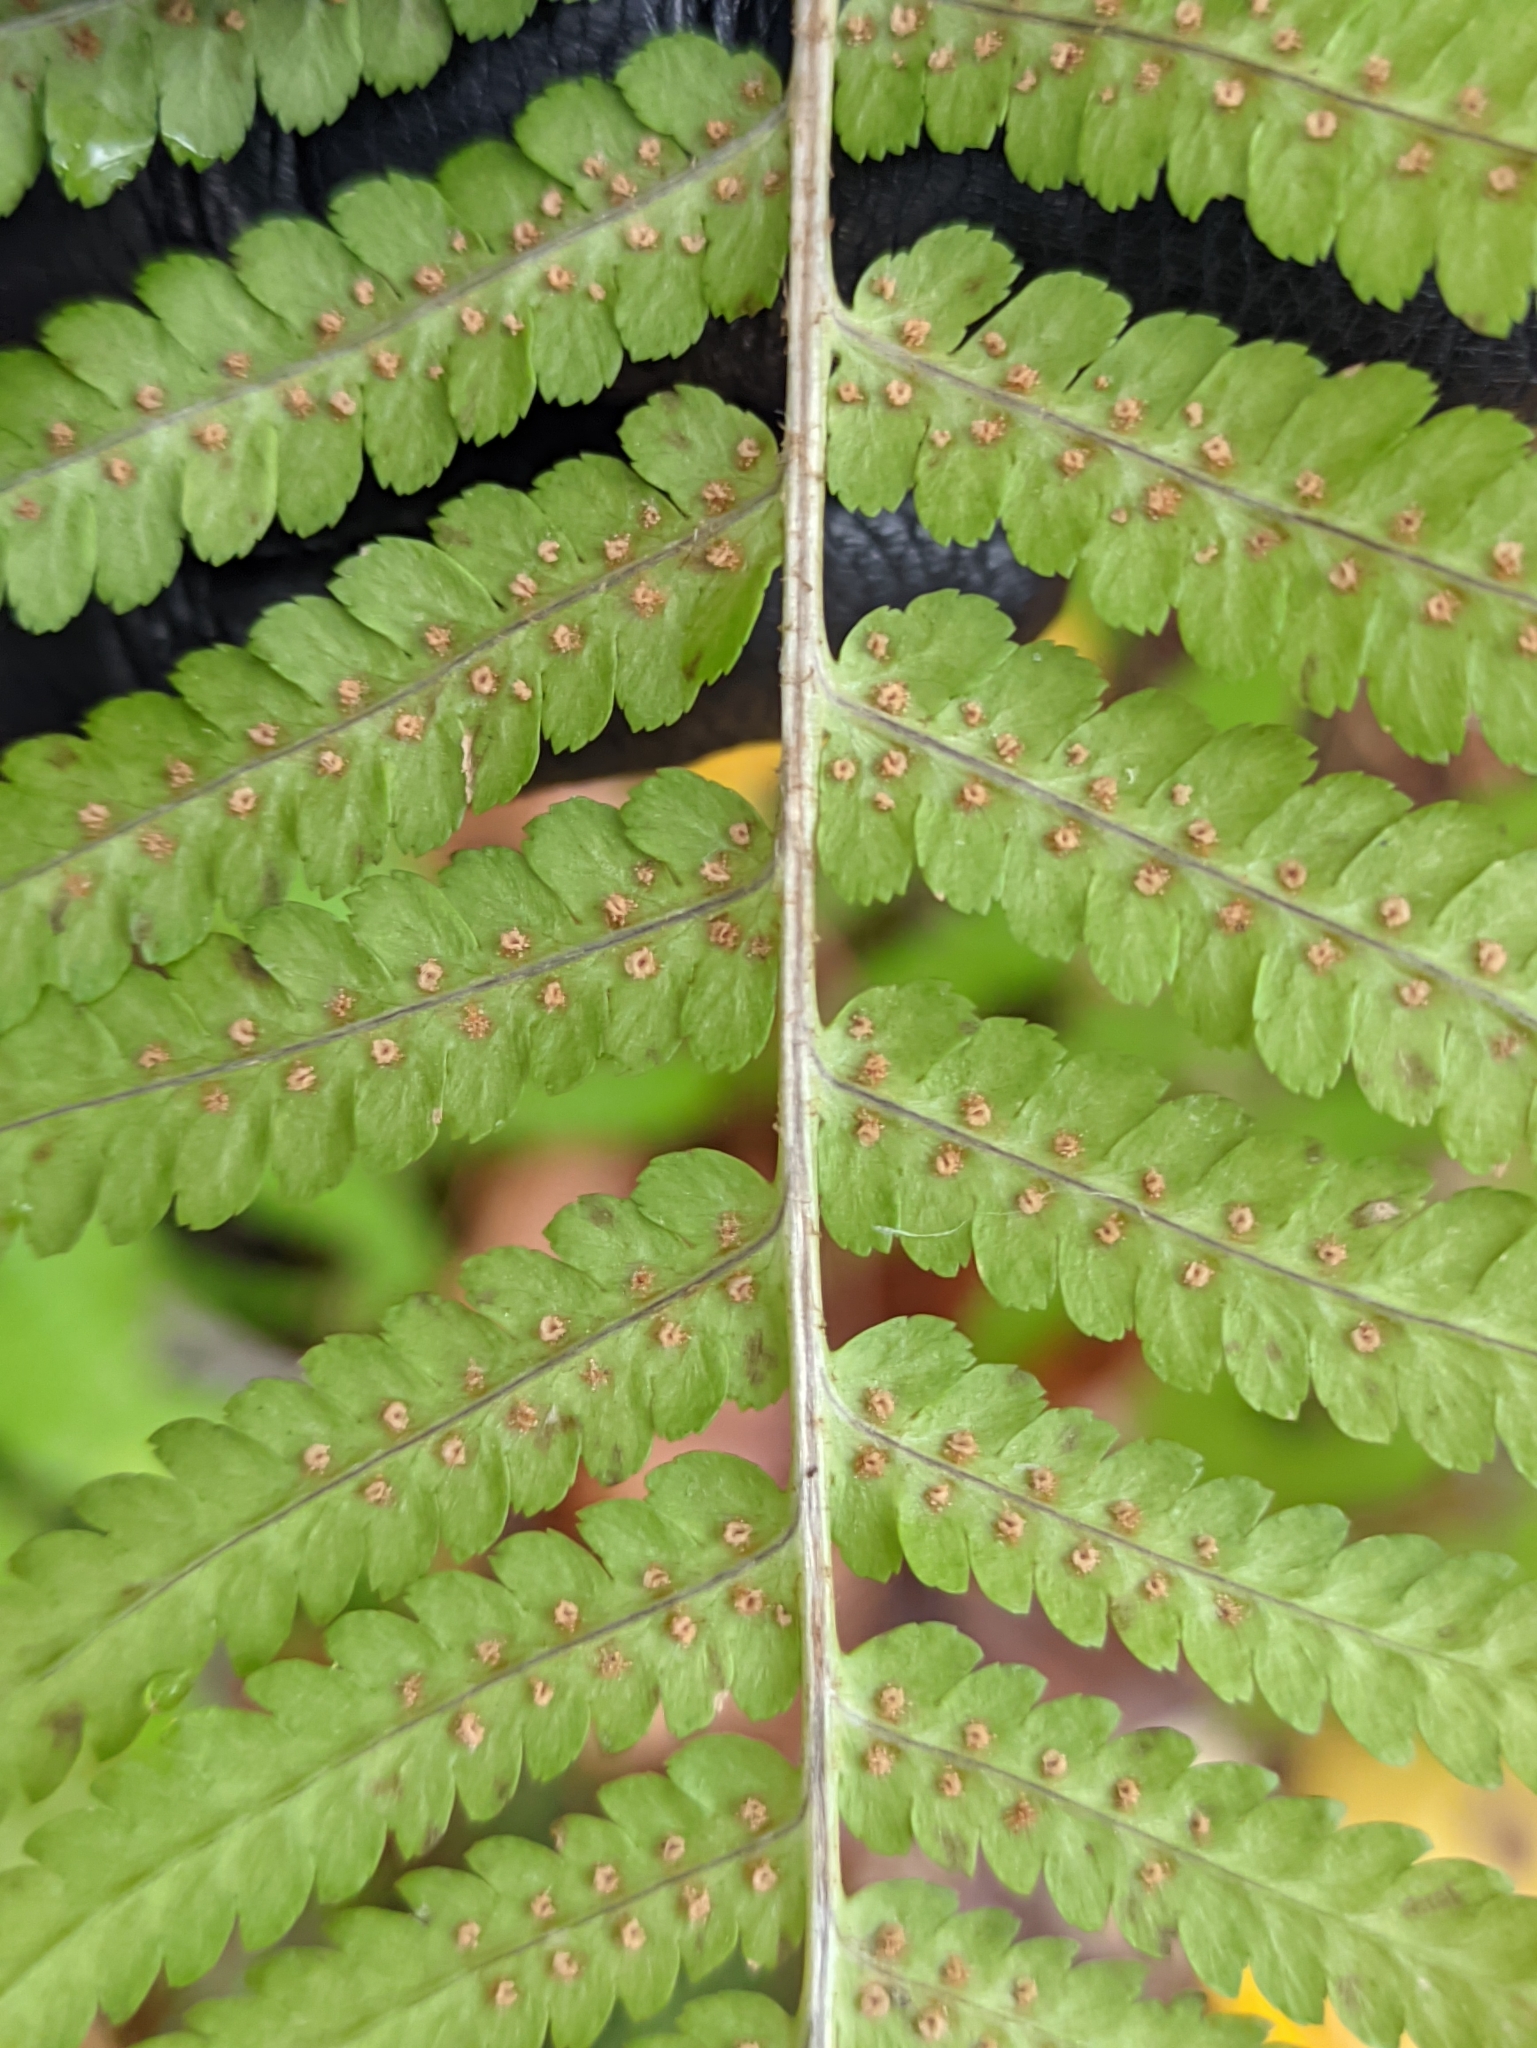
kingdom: Plantae
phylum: Tracheophyta
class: Polypodiopsida
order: Polypodiales
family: Dryopteridaceae
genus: Dryopteris
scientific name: Dryopteris filix-mas
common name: Male fern
